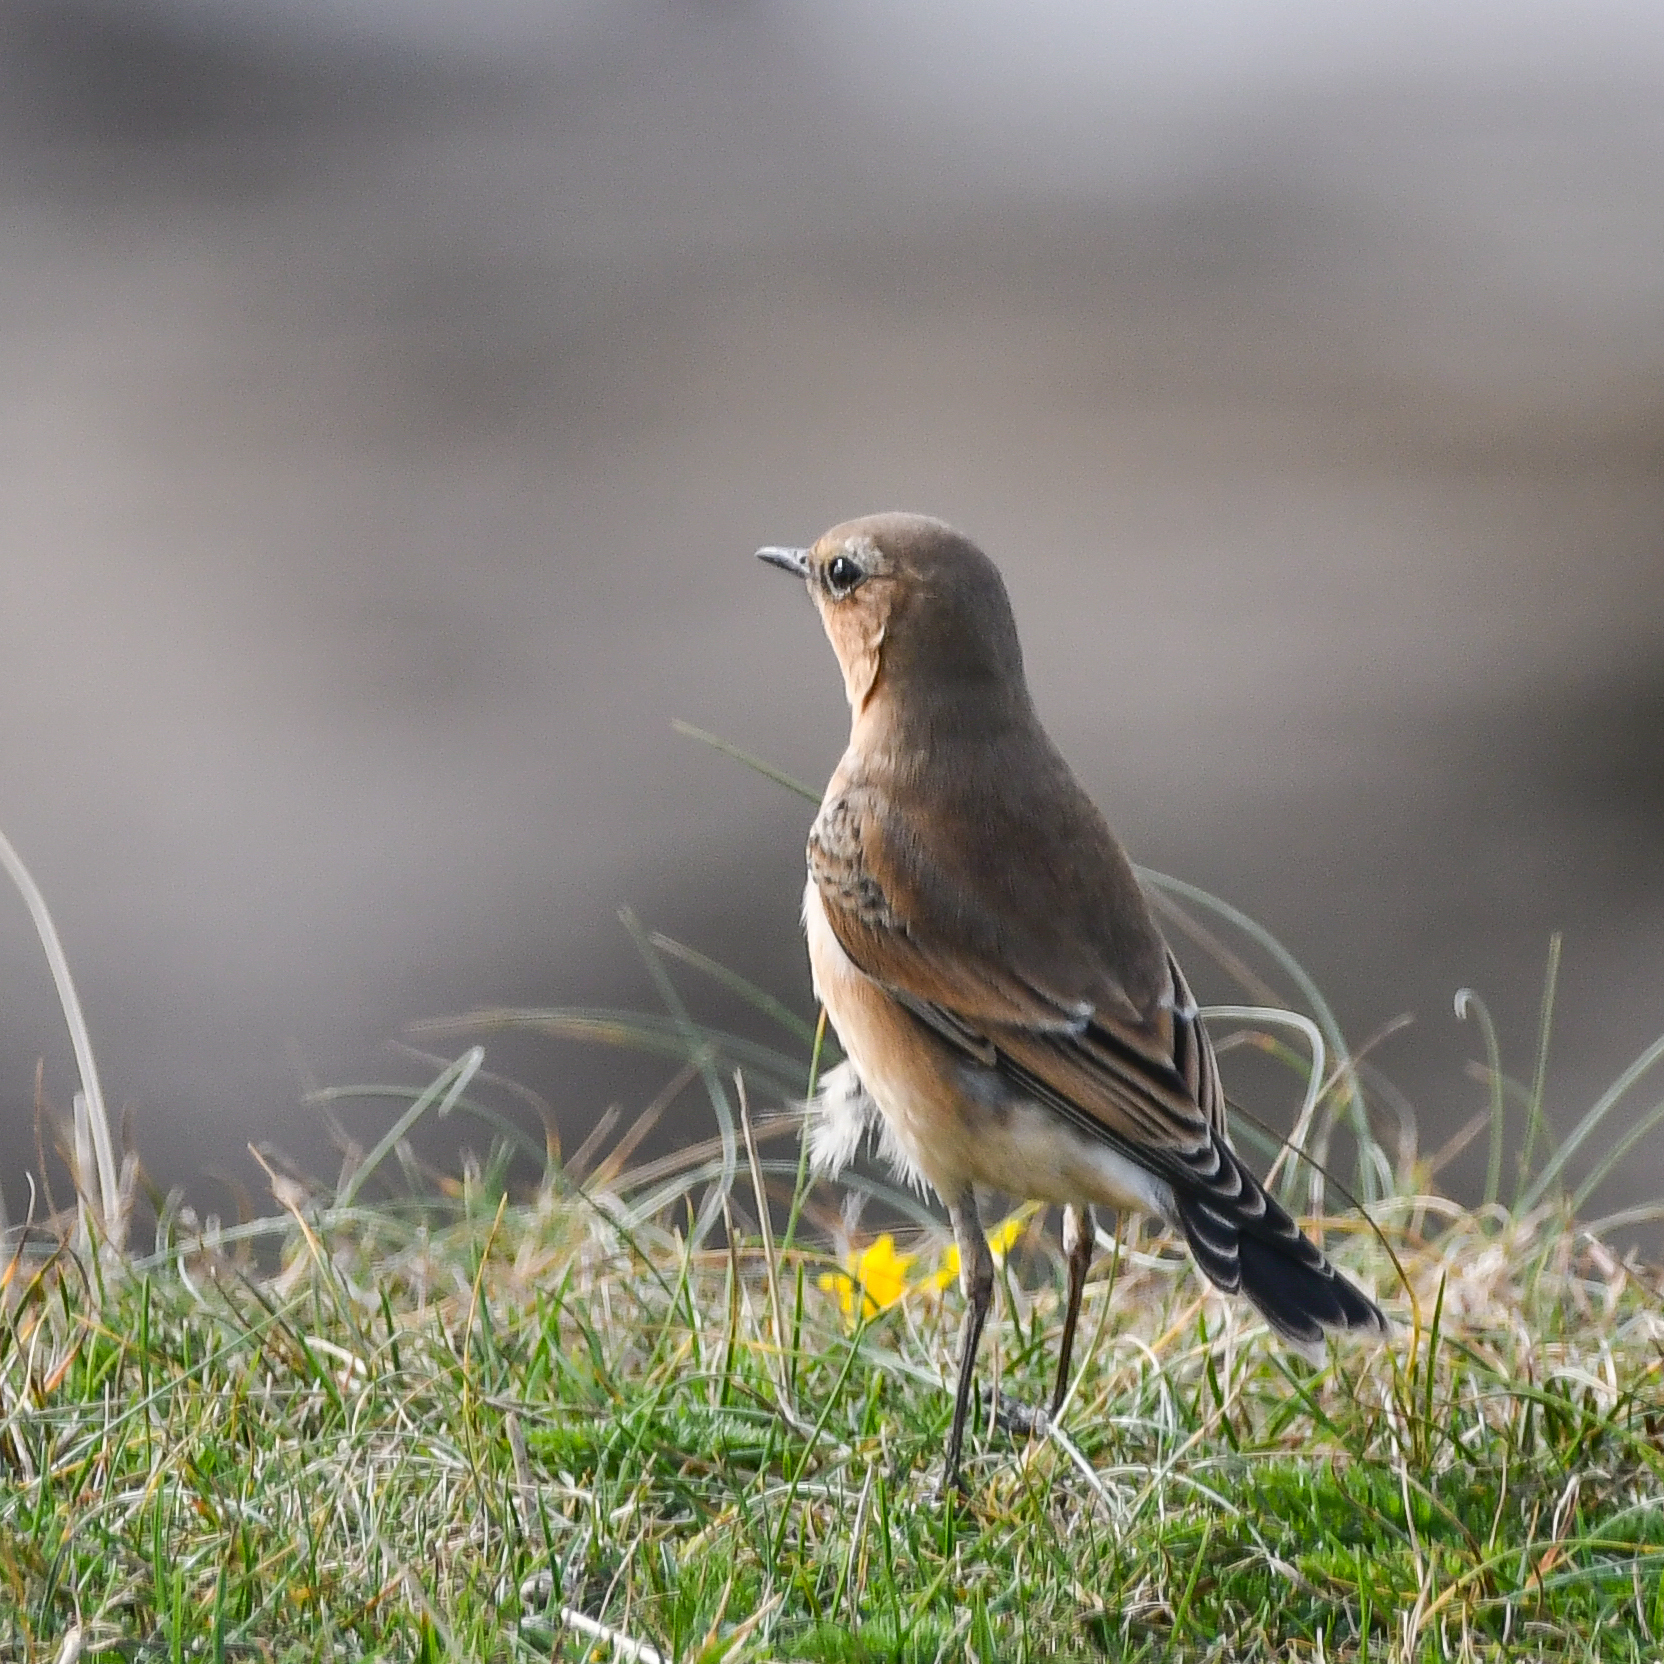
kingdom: Animalia
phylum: Chordata
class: Aves
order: Passeriformes
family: Muscicapidae
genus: Oenanthe
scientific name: Oenanthe oenanthe
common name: Northern wheatear
